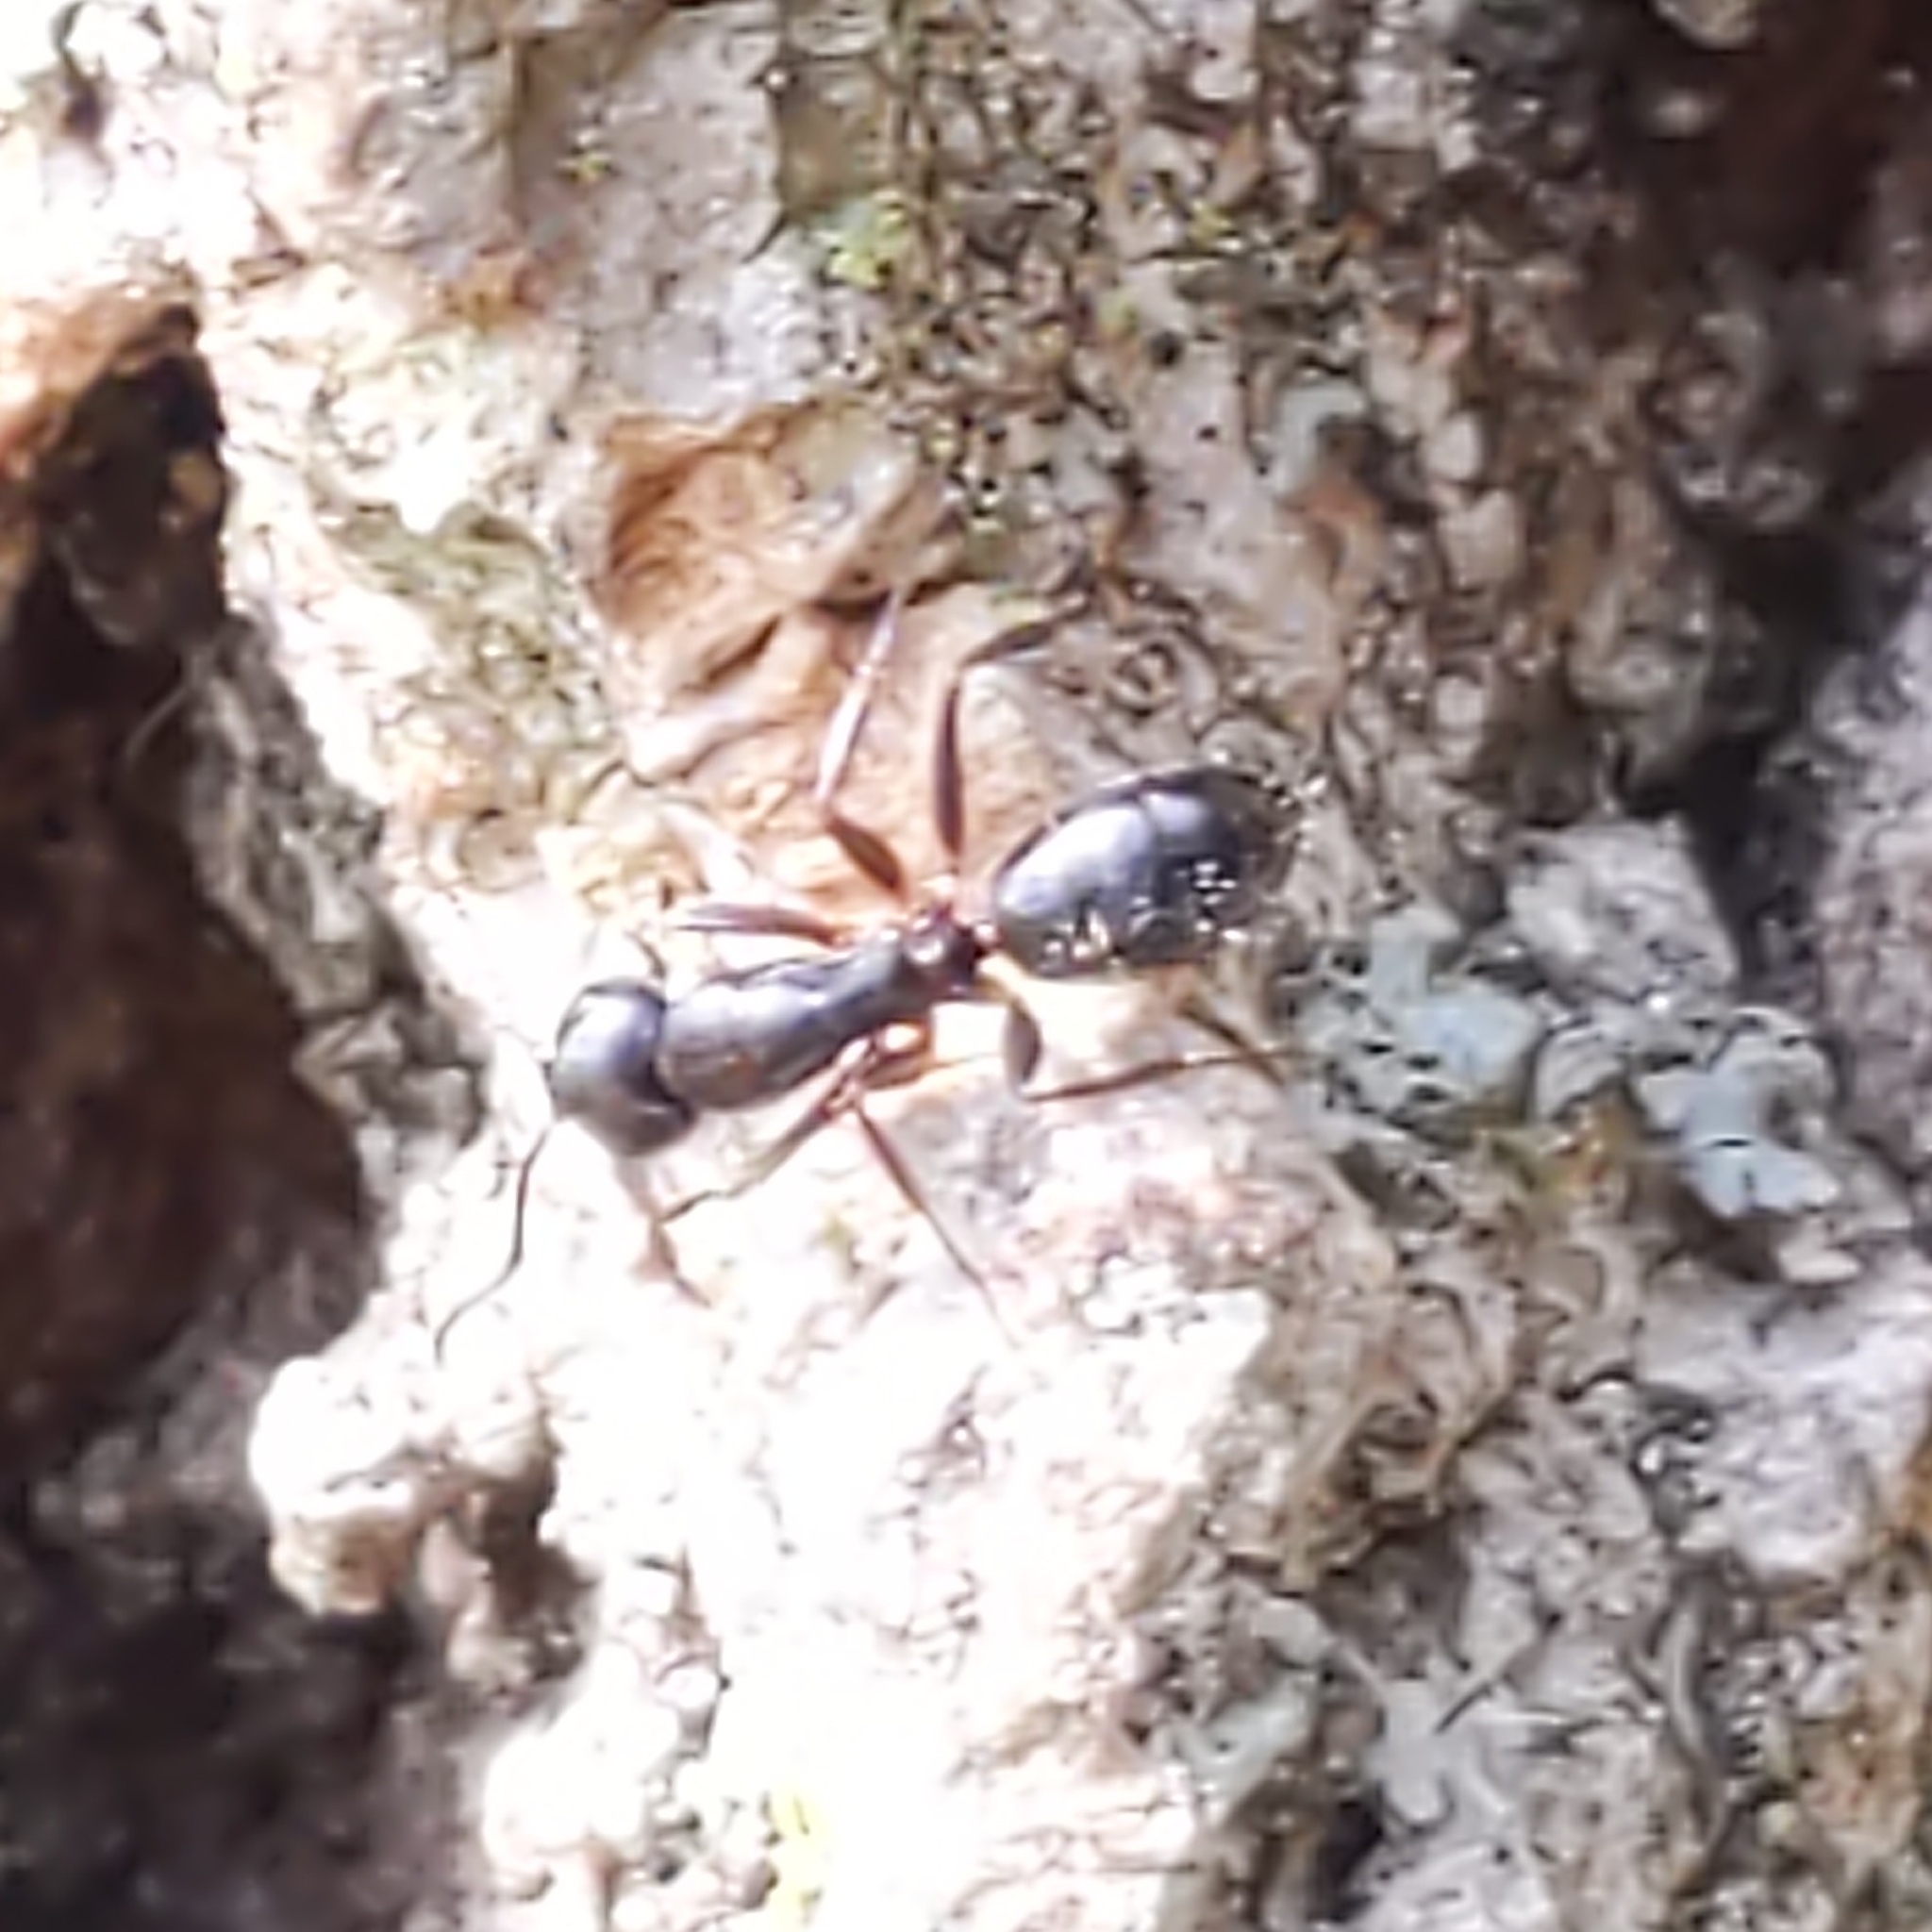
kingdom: Animalia
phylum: Arthropoda
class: Insecta
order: Hymenoptera
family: Formicidae
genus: Camponotus
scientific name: Camponotus nearcticus
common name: Smaller carpenter ant
